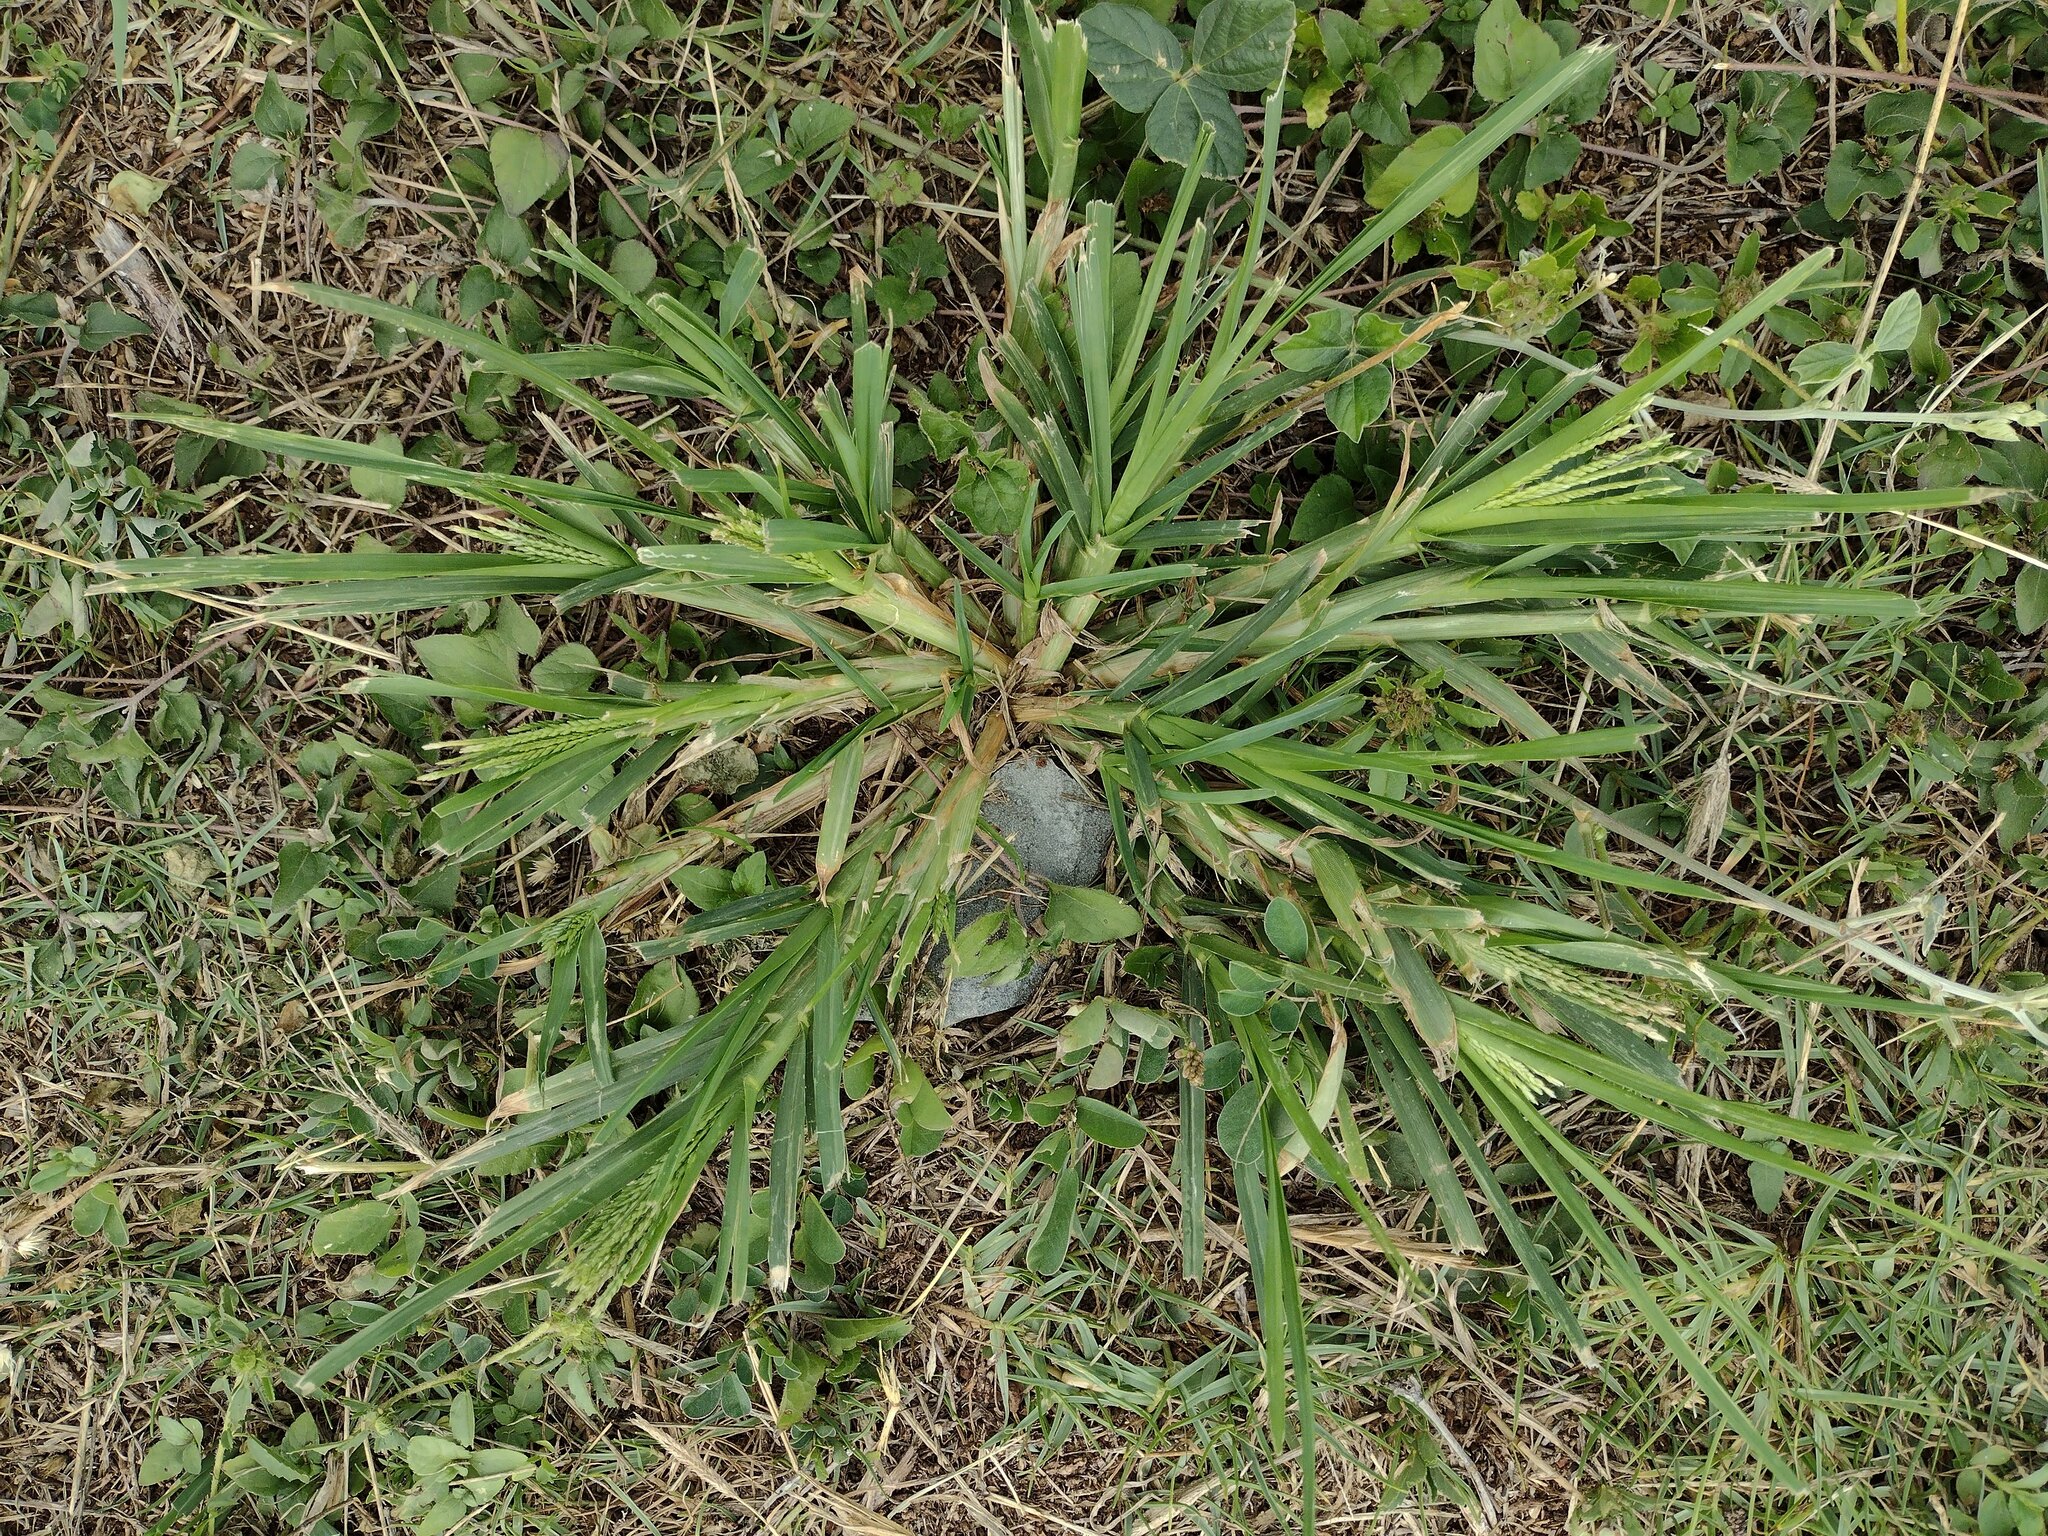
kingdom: Plantae
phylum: Tracheophyta
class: Liliopsida
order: Poales
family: Poaceae
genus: Eleusine
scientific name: Eleusine indica
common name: Yard-grass
